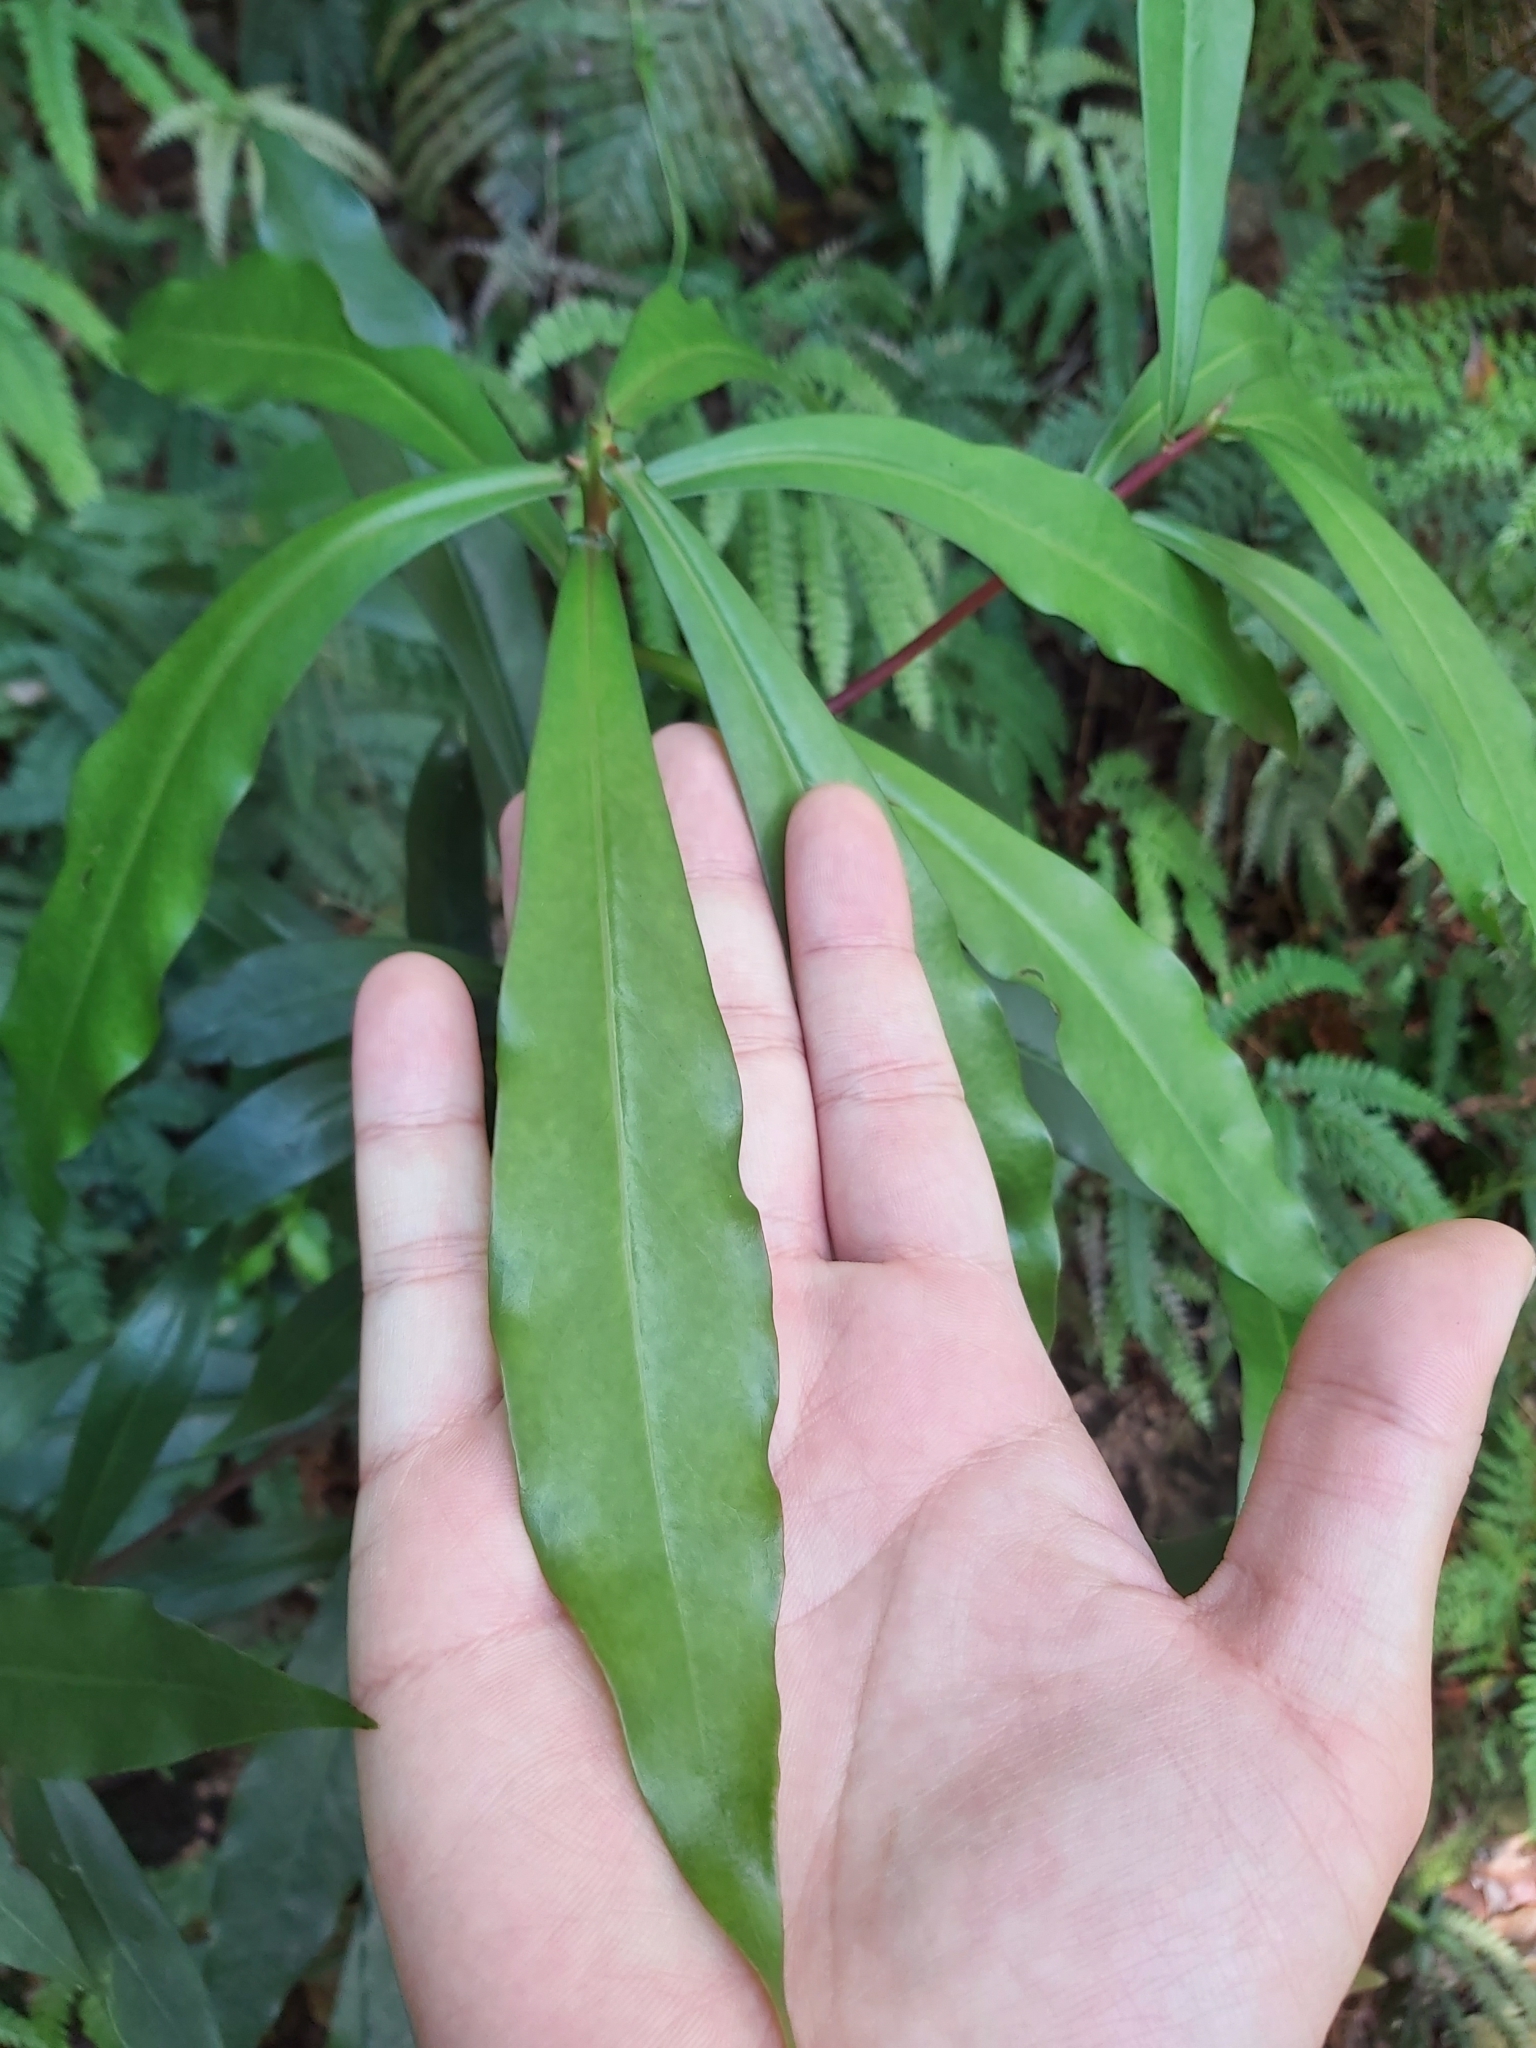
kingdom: Plantae
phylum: Tracheophyta
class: Magnoliopsida
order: Canellales
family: Winteraceae
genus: Drimys
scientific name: Drimys insipida
